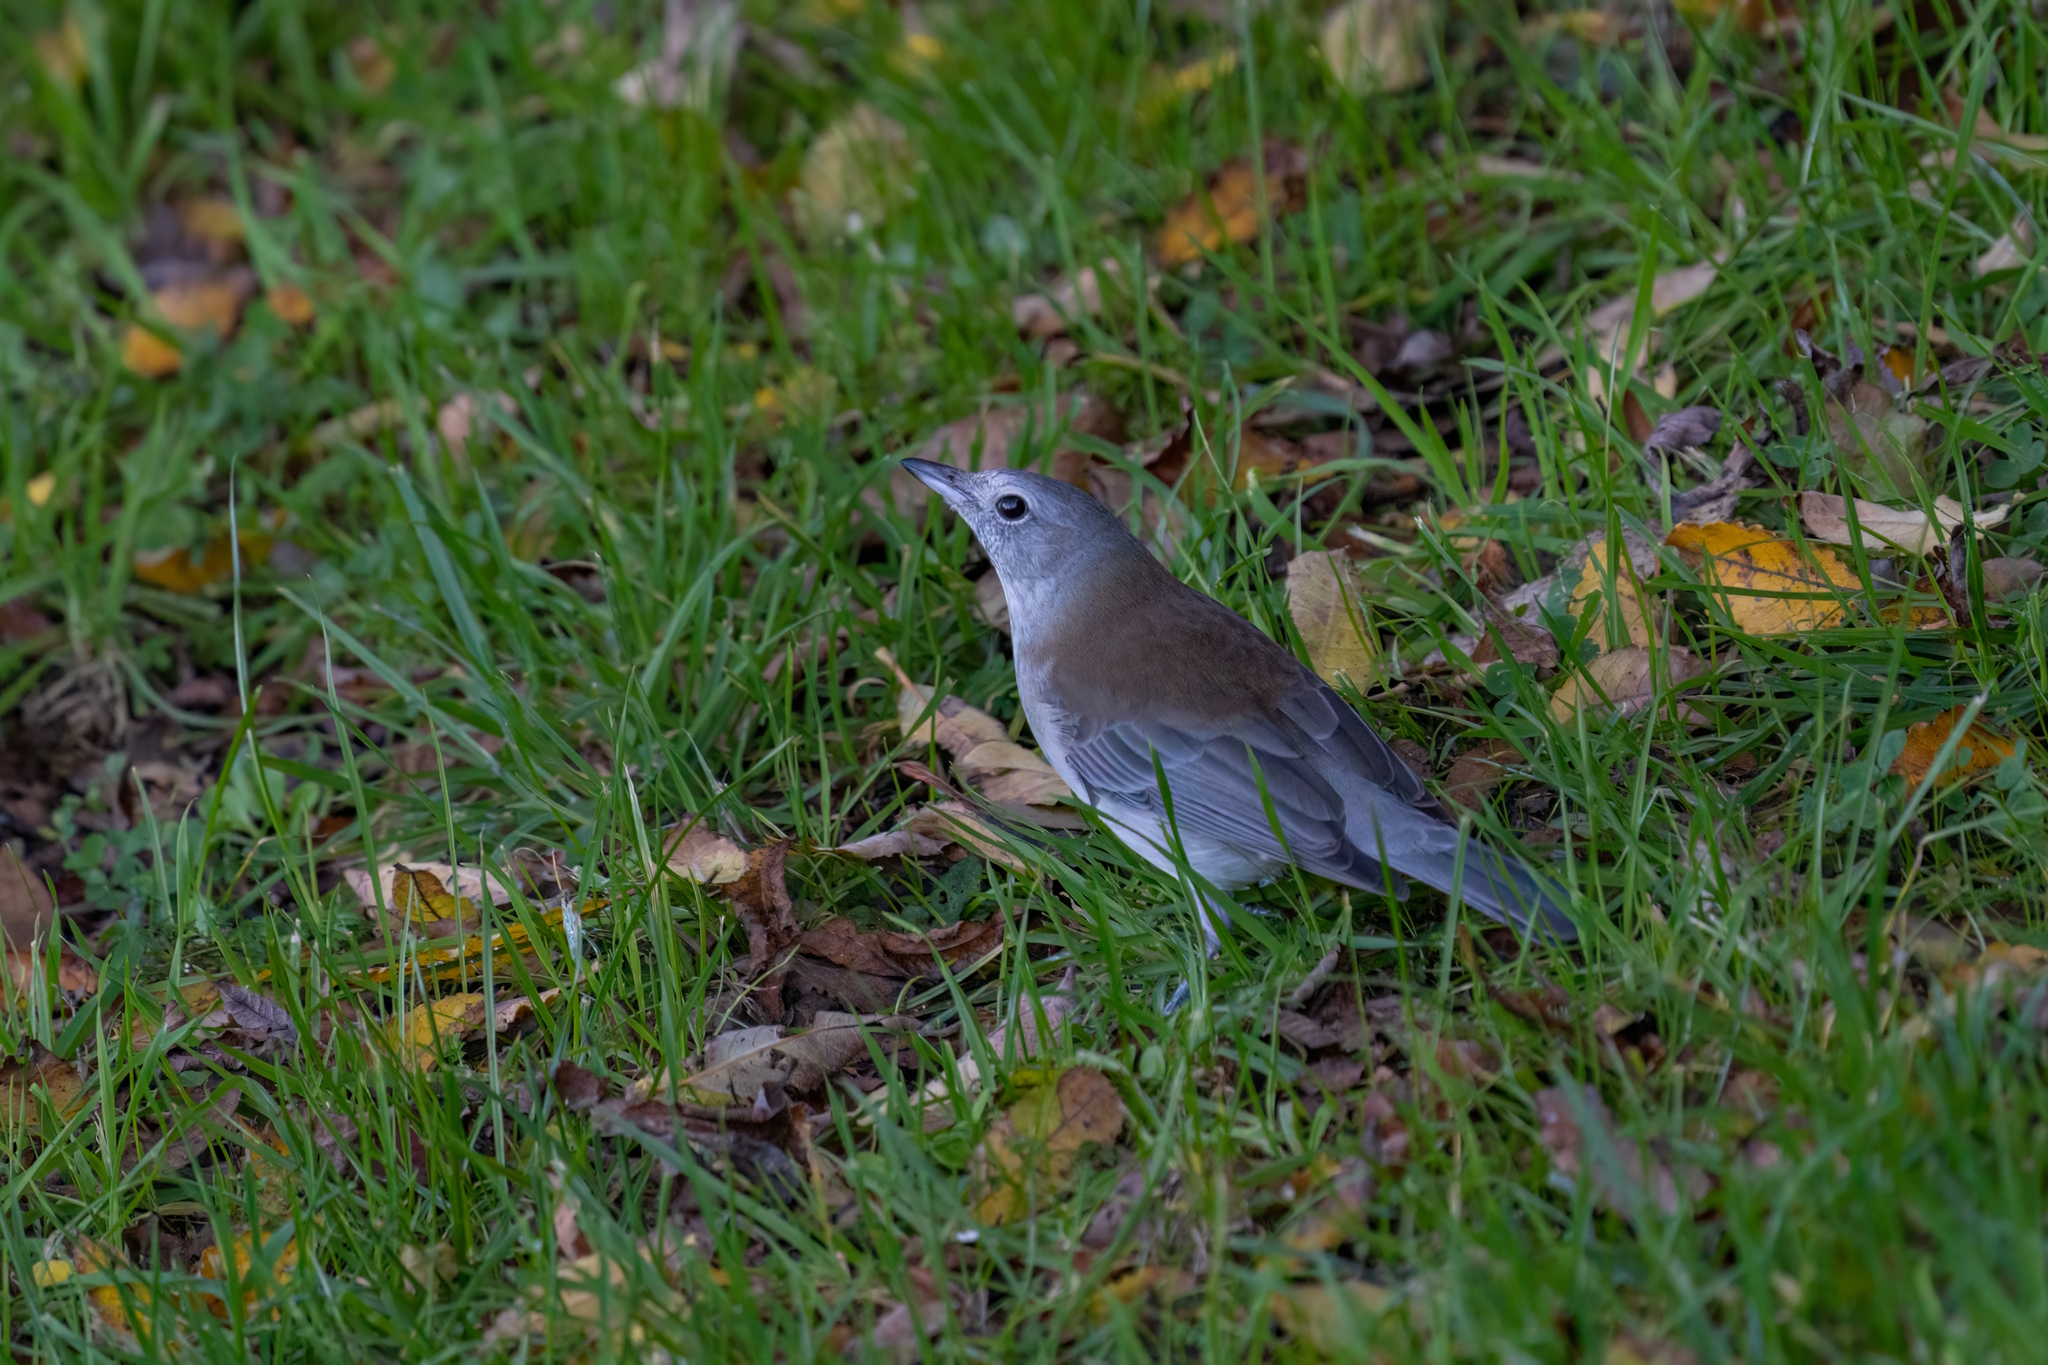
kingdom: Animalia
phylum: Chordata
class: Aves
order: Passeriformes
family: Pachycephalidae
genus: Colluricincla
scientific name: Colluricincla harmonica
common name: Grey shrikethrush
